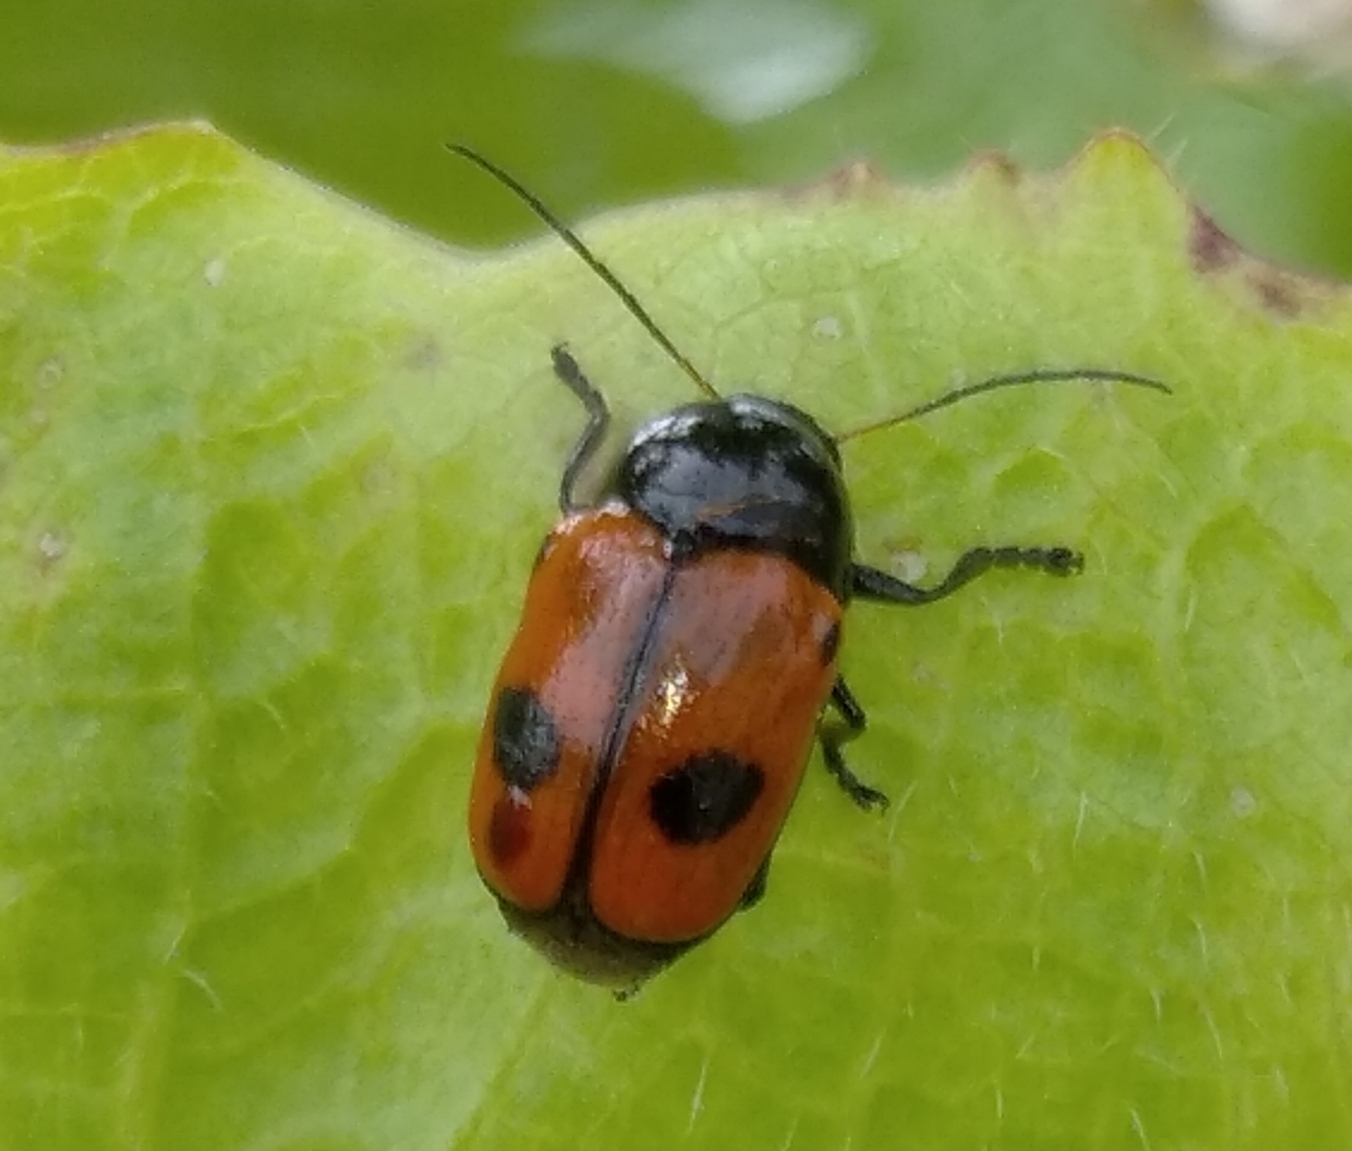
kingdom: Animalia
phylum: Arthropoda
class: Insecta
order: Coleoptera
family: Chrysomelidae
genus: Chiridopsis
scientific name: Chiridopsis bipunctata
